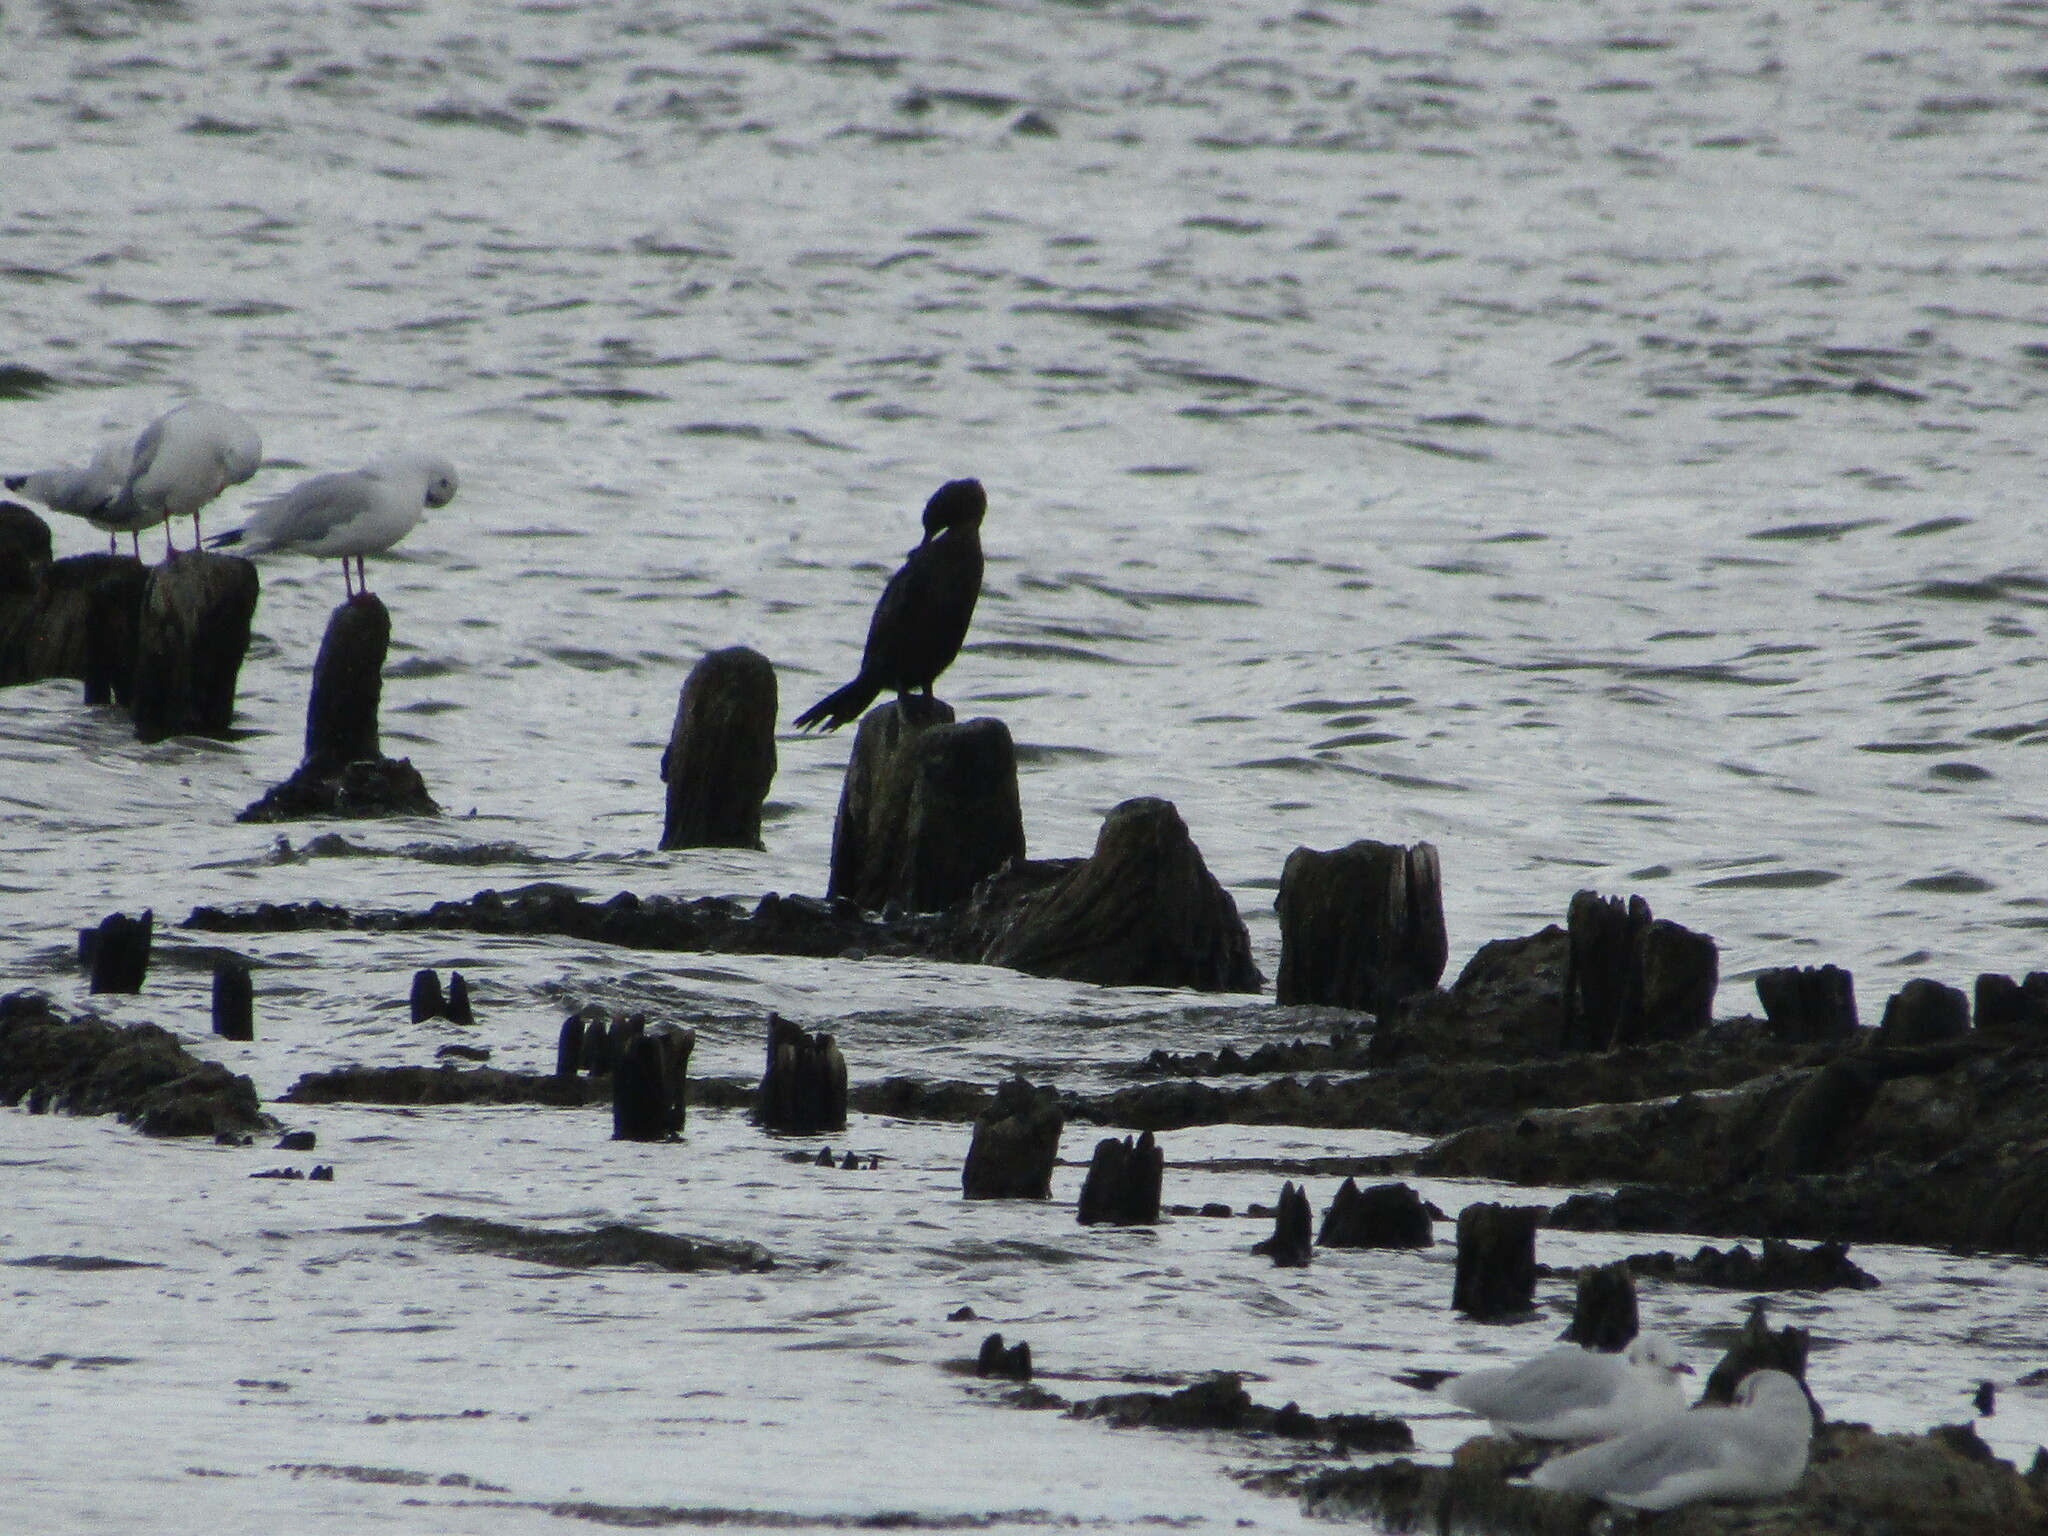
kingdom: Animalia
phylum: Chordata
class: Aves
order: Suliformes
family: Phalacrocoracidae
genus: Microcarbo
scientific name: Microcarbo pygmaeus
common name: Pygmy cormorant
